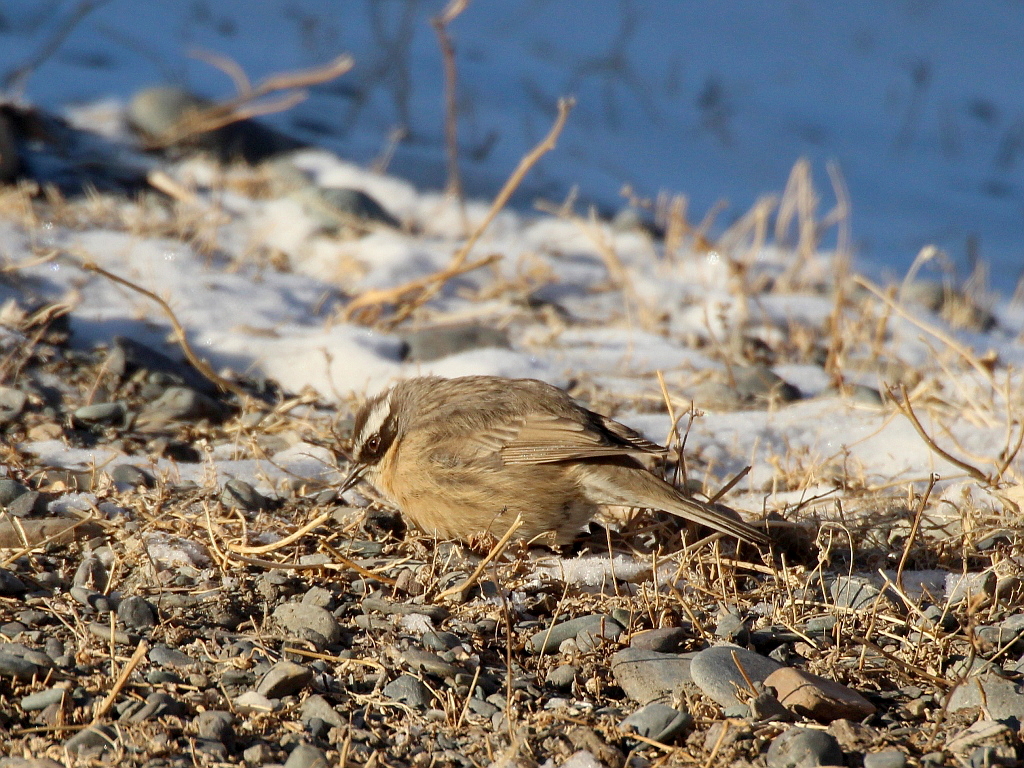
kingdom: Animalia
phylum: Chordata
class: Aves
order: Passeriformes
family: Prunellidae
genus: Prunella
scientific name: Prunella fulvescens
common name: Brown accentor
